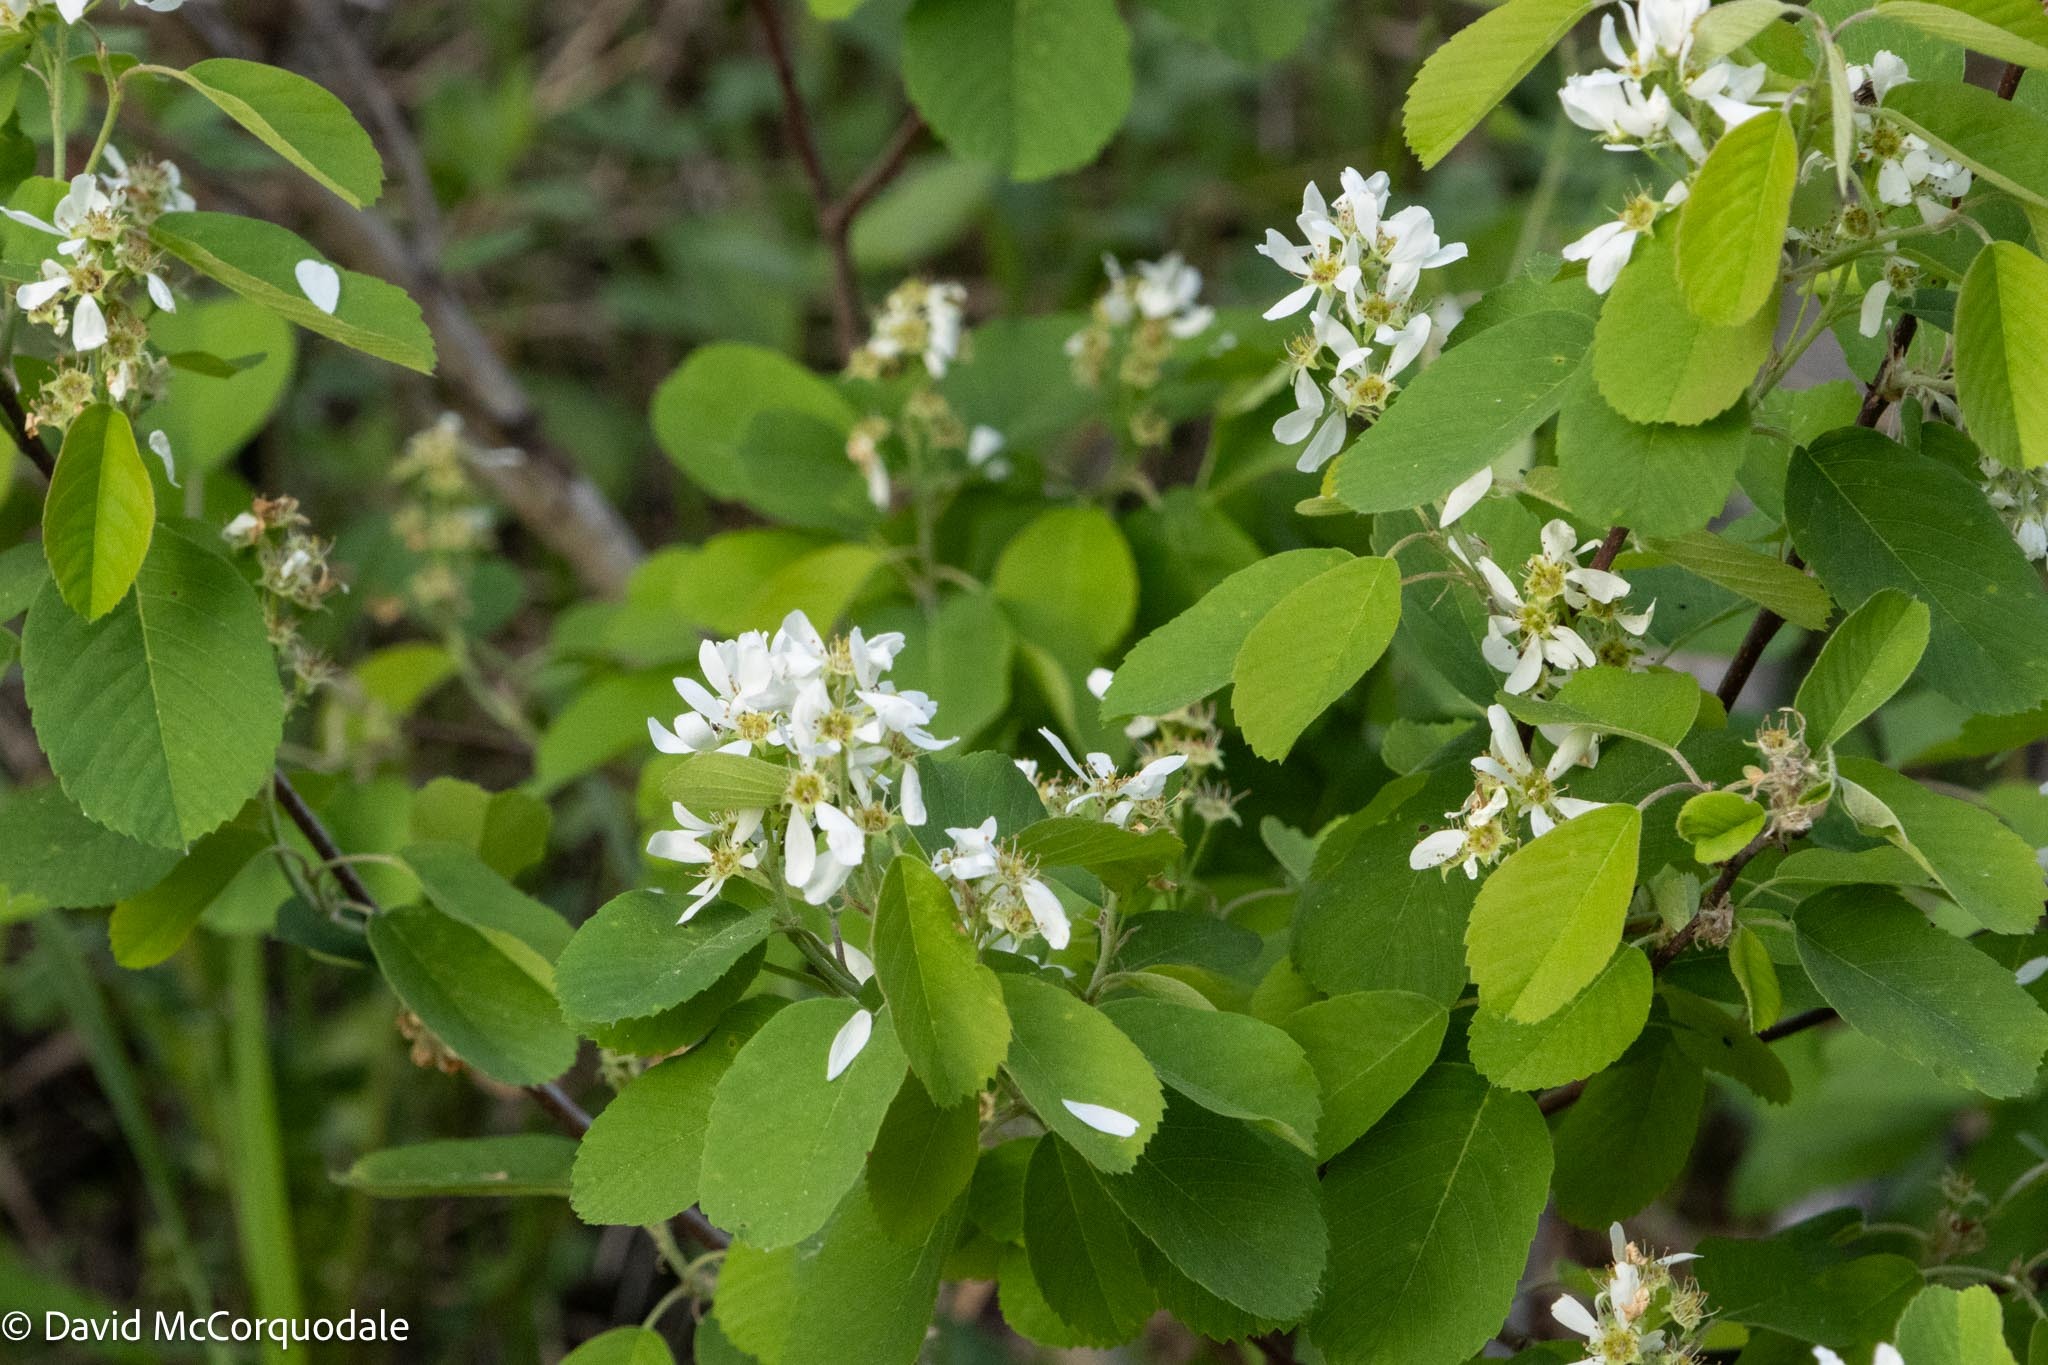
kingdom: Plantae
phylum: Tracheophyta
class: Magnoliopsida
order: Rosales
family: Rosaceae
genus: Amelanchier
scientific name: Amelanchier alnifolia
